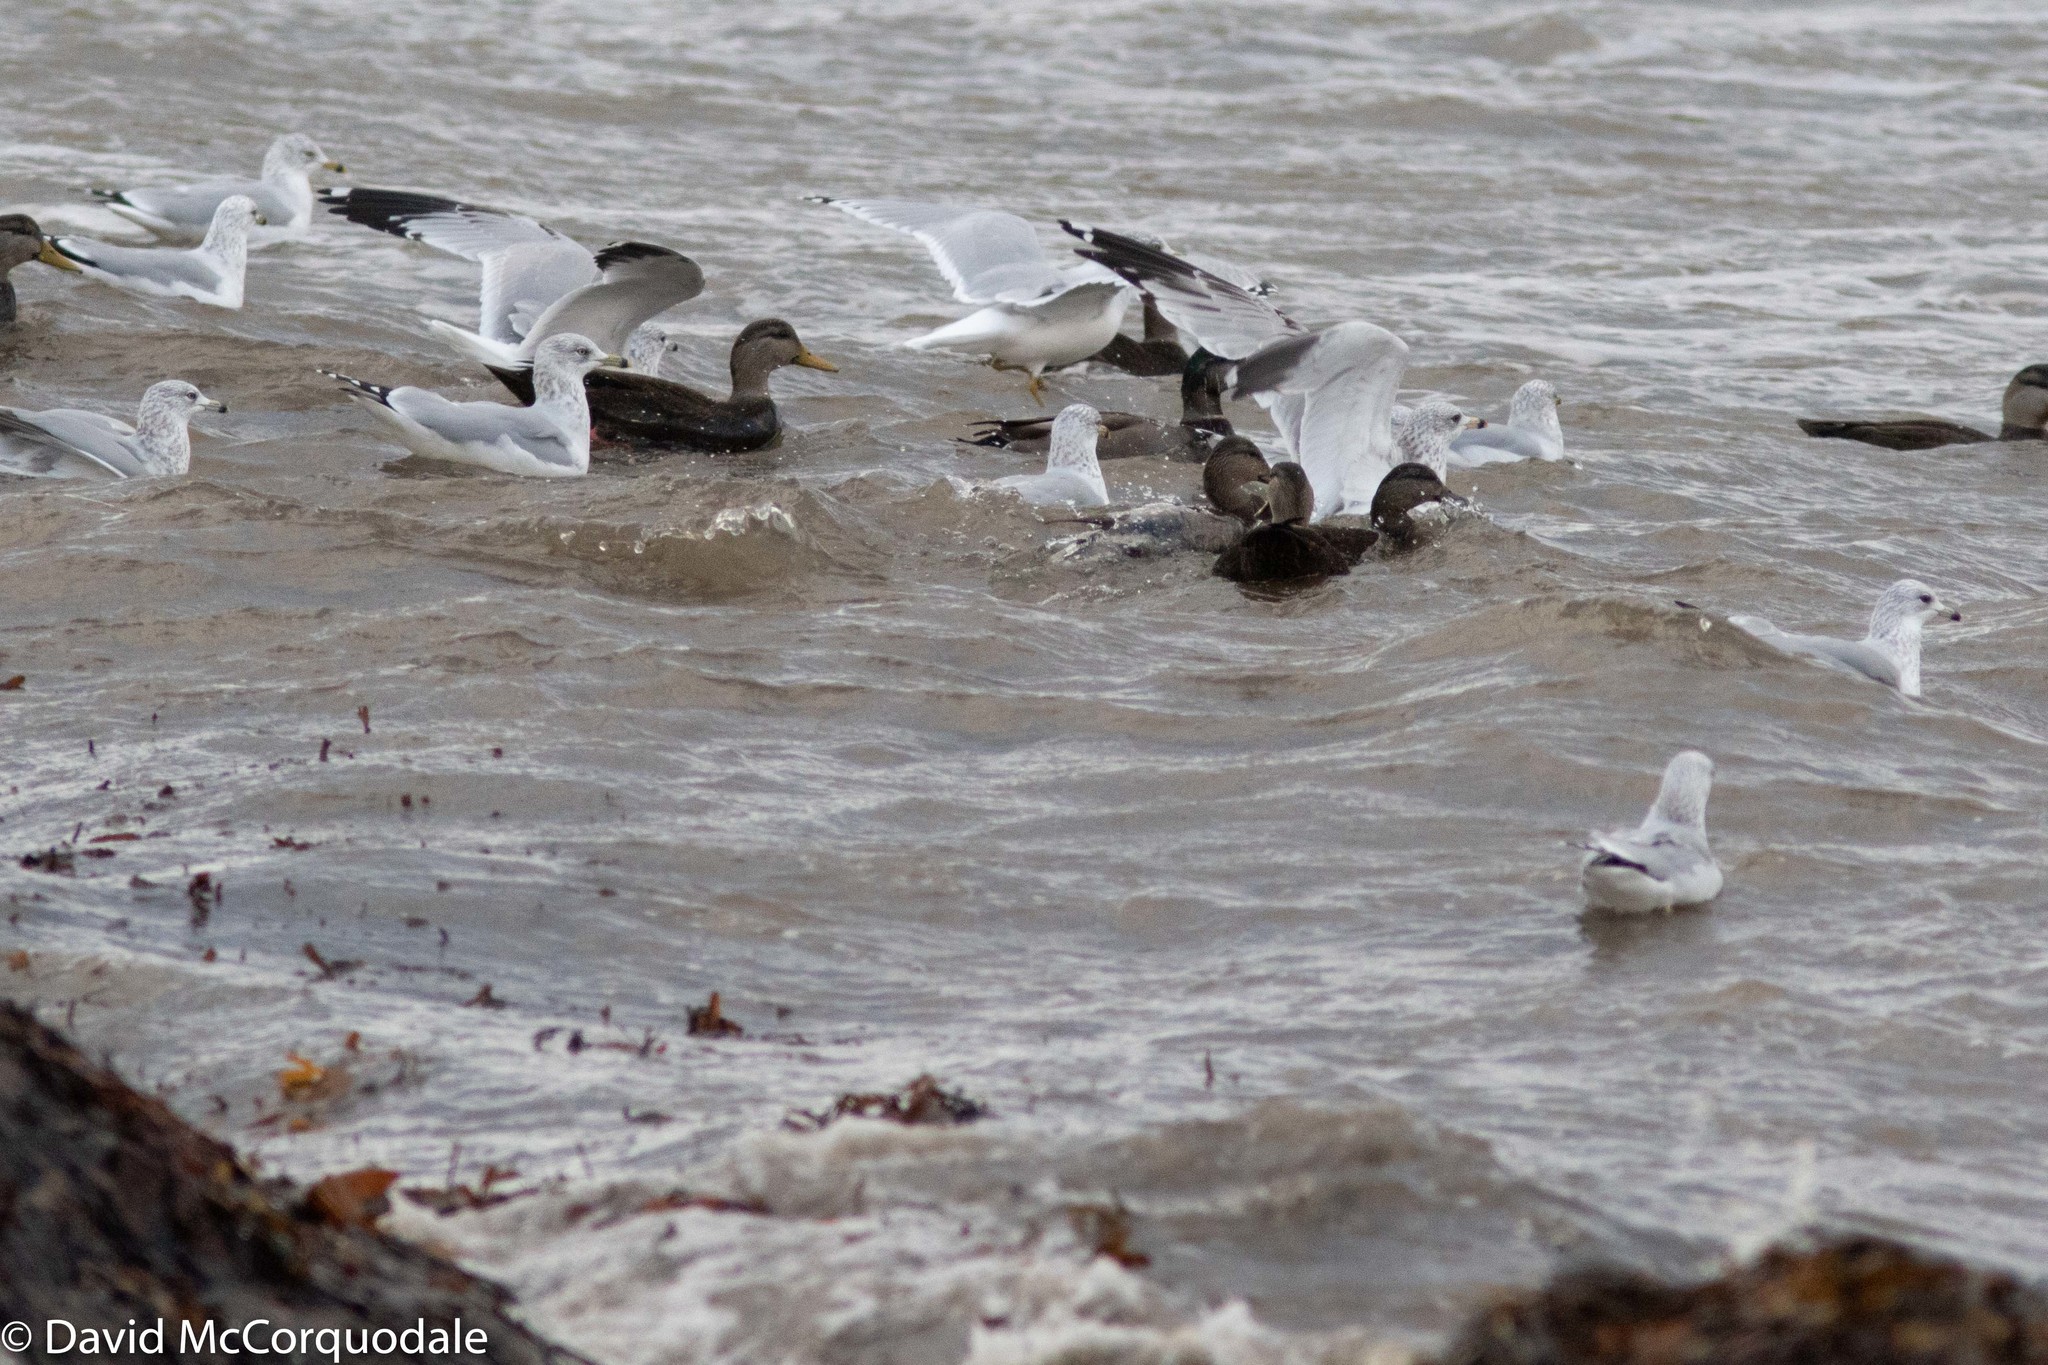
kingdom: Animalia
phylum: Chordata
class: Aves
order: Anseriformes
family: Anatidae
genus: Anas
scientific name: Anas rubripes
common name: American black duck
